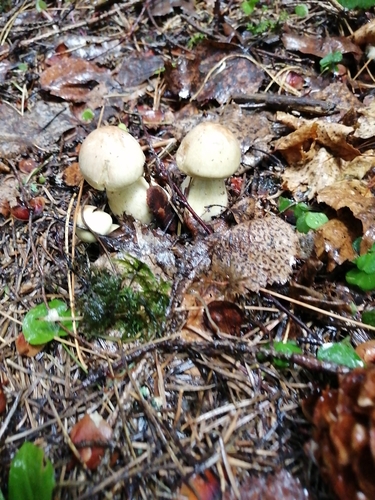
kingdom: Fungi
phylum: Basidiomycota
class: Agaricomycetes
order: Agaricales
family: Tricholomataceae
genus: Tricholoma
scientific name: Tricholoma rapipes
